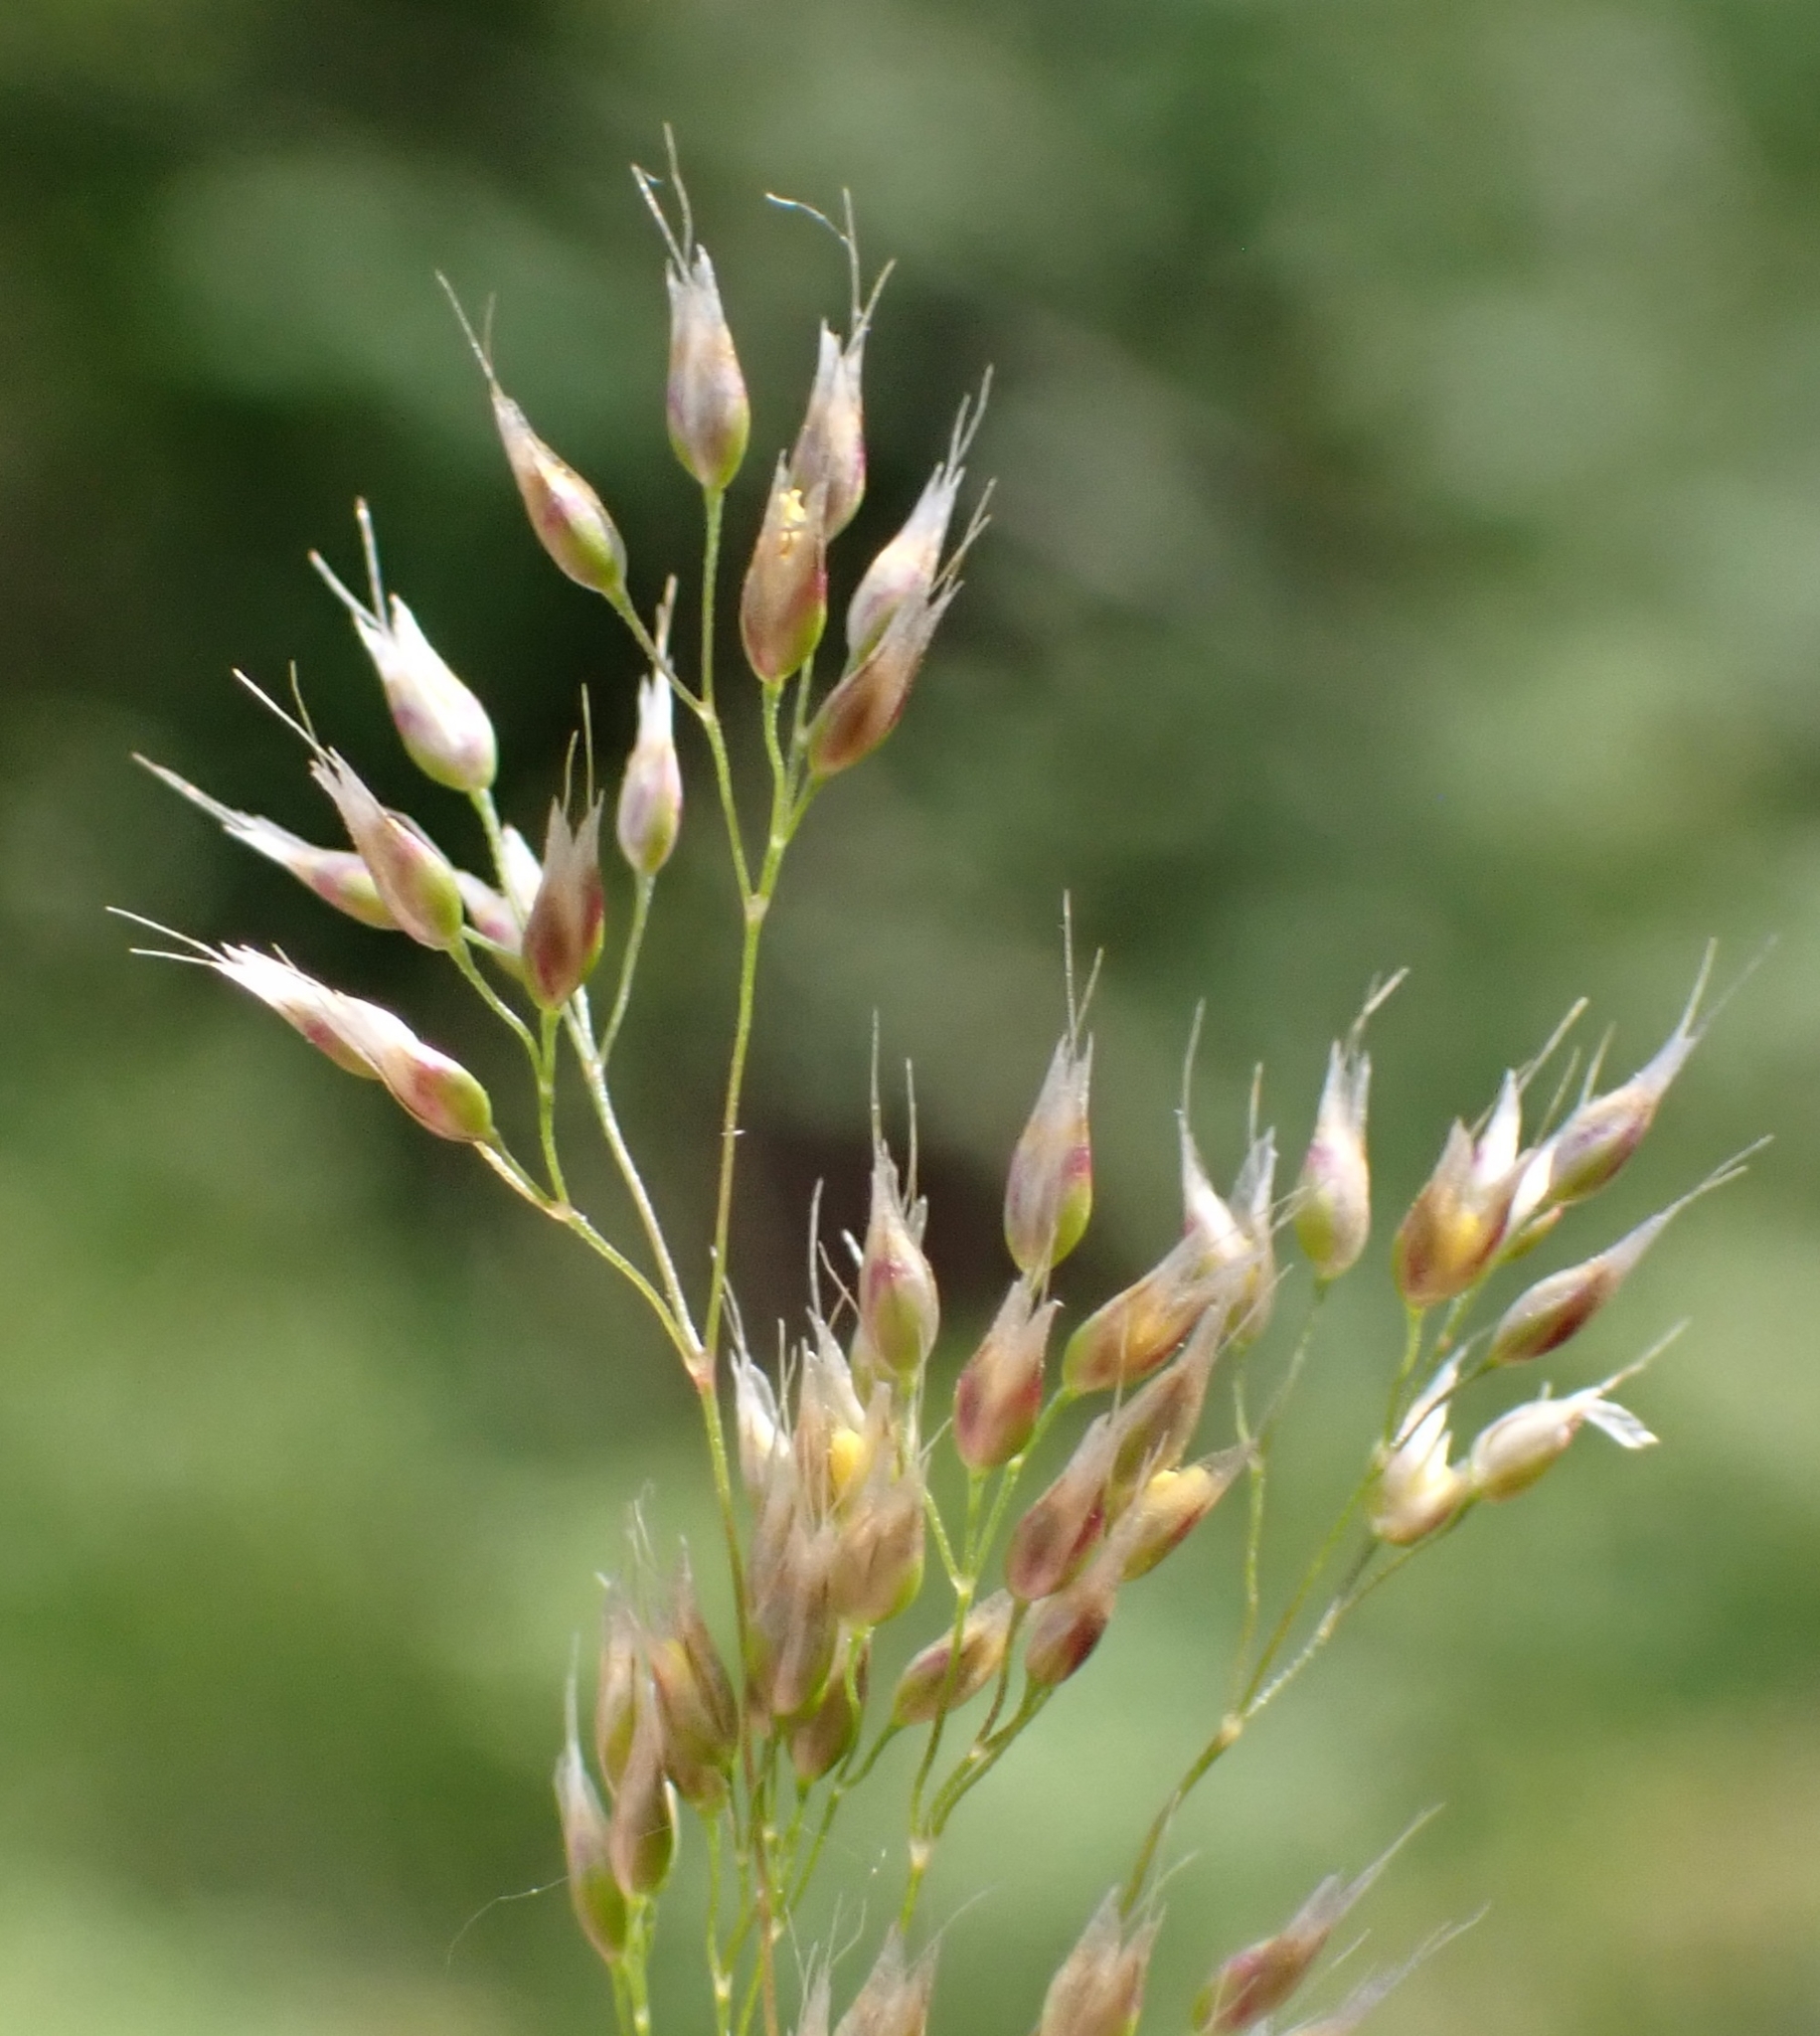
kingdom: Plantae
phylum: Tracheophyta
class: Liliopsida
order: Poales
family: Poaceae
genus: Aira
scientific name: Aira caryophyllea
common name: Silver hairgrass
